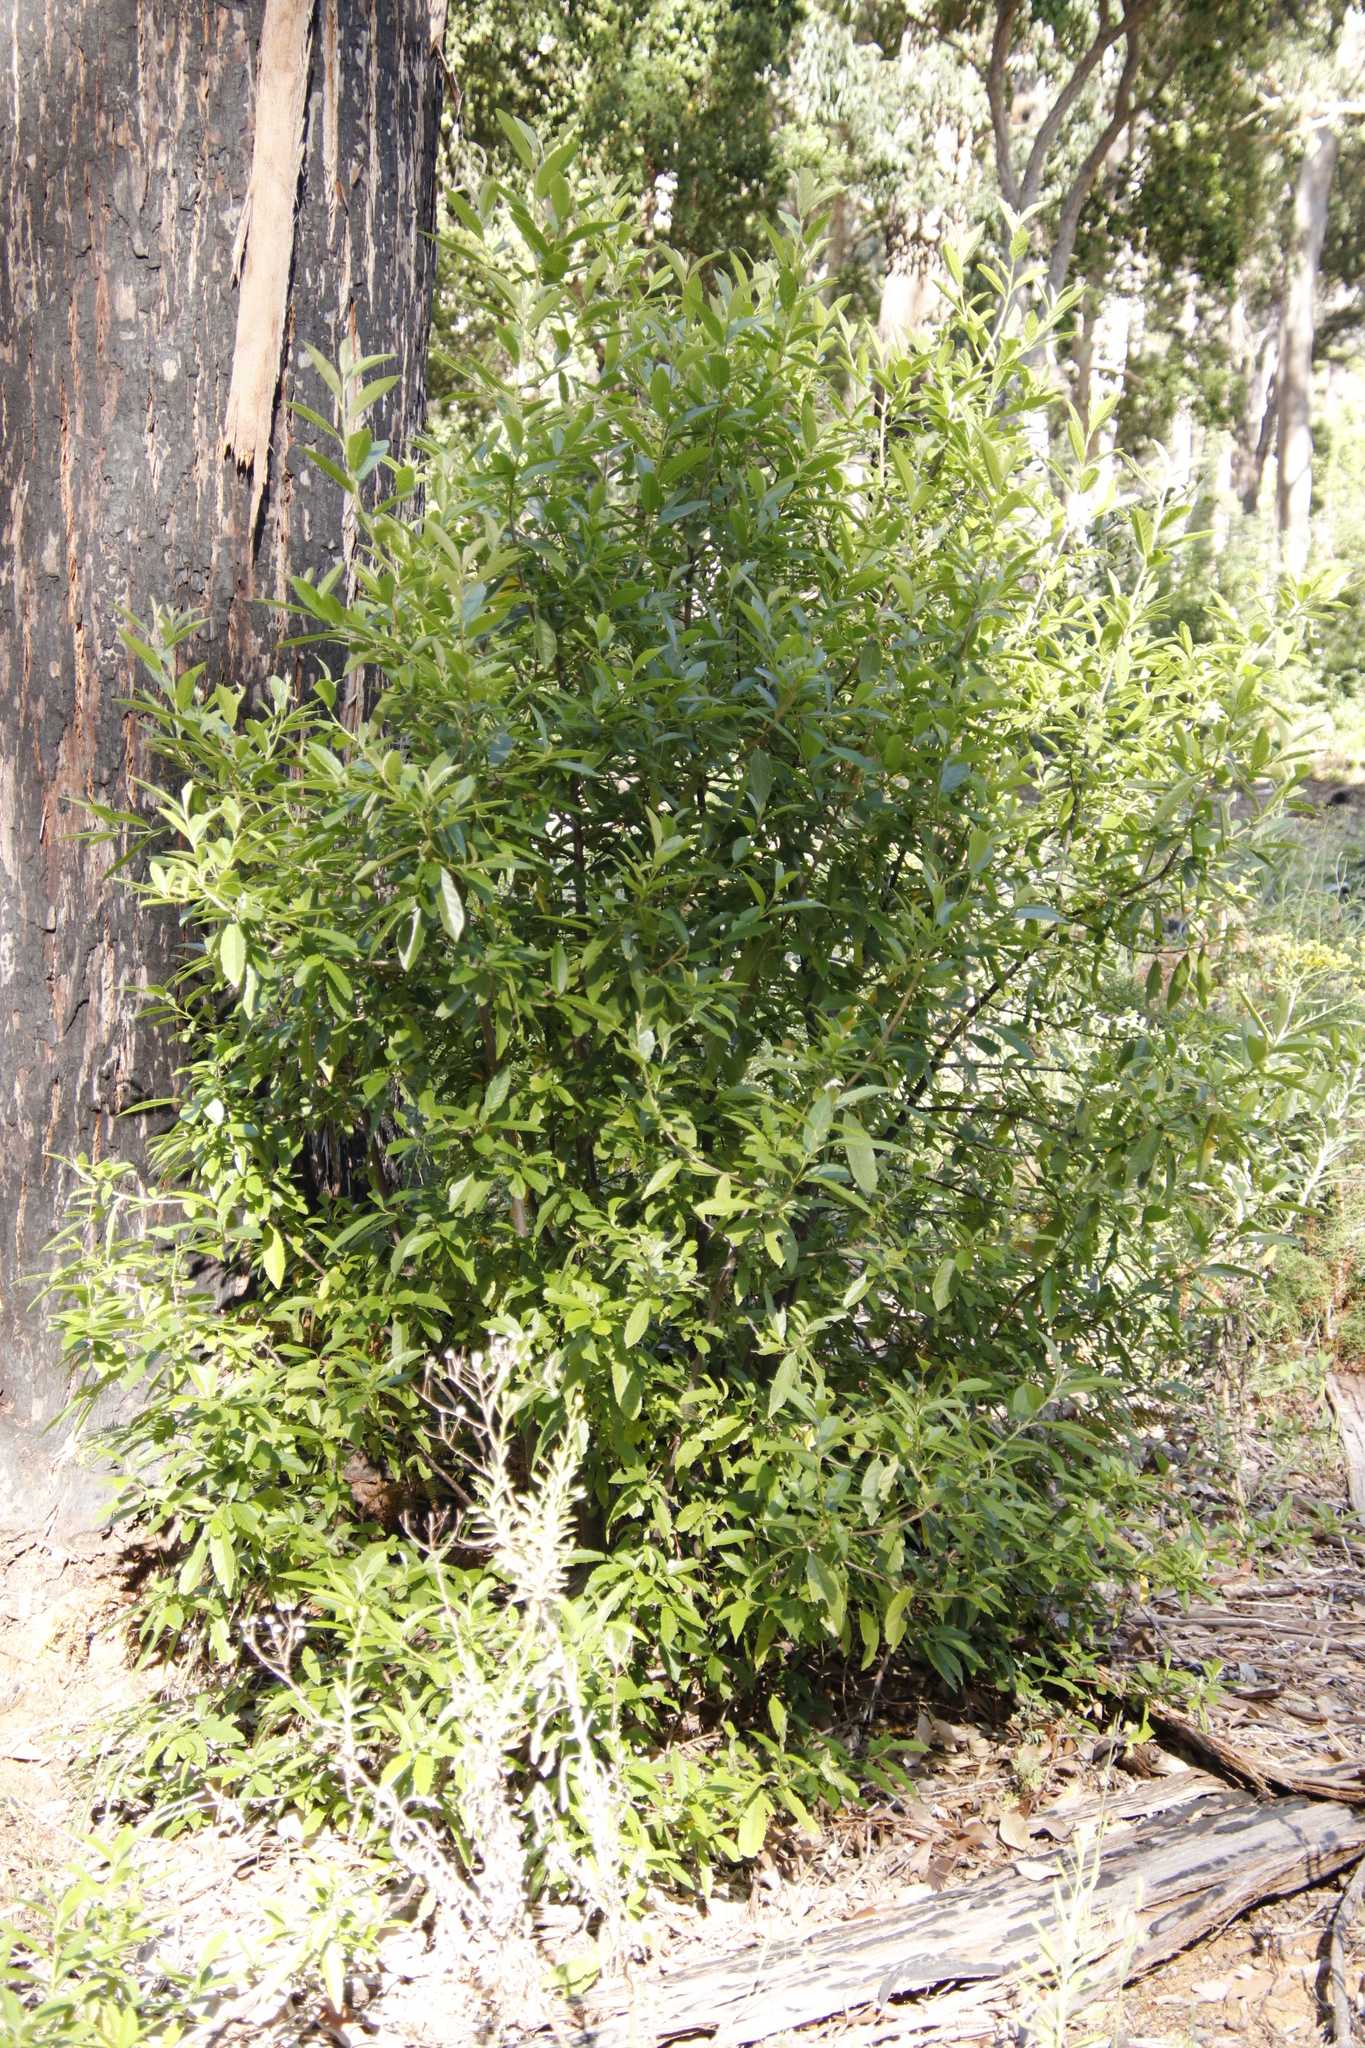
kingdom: Plantae
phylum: Tracheophyta
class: Magnoliopsida
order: Malpighiales
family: Achariaceae
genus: Kiggelaria
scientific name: Kiggelaria africana
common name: Wild peach
